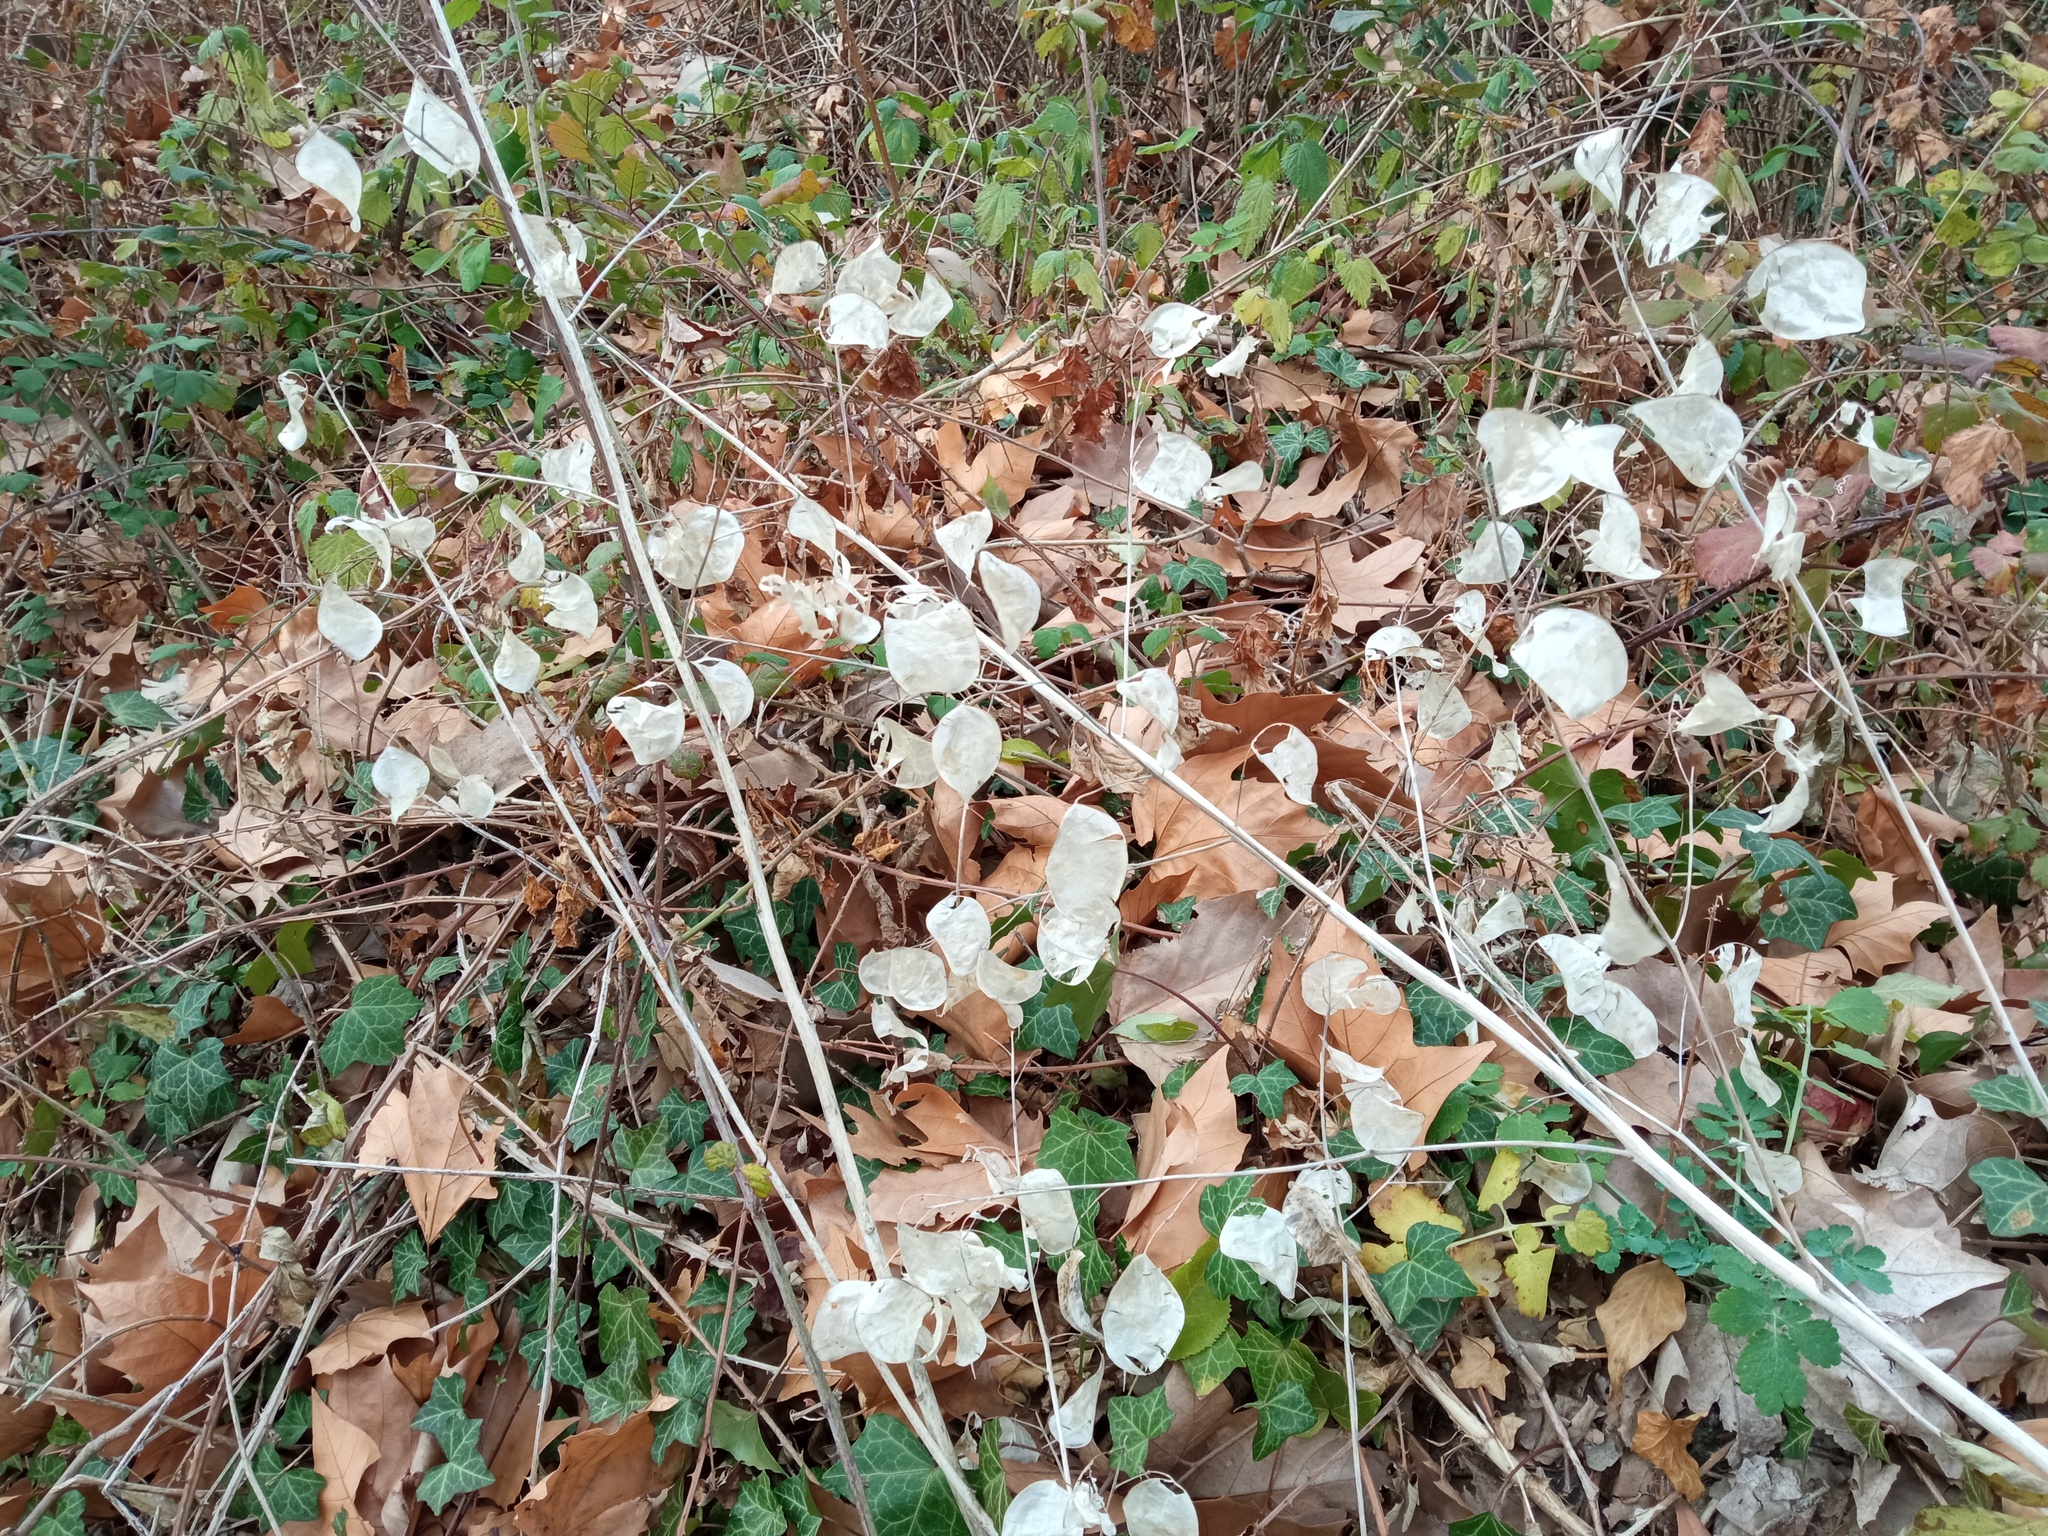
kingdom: Plantae
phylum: Tracheophyta
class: Magnoliopsida
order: Brassicales
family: Brassicaceae
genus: Lunaria
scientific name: Lunaria annua
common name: Honesty
